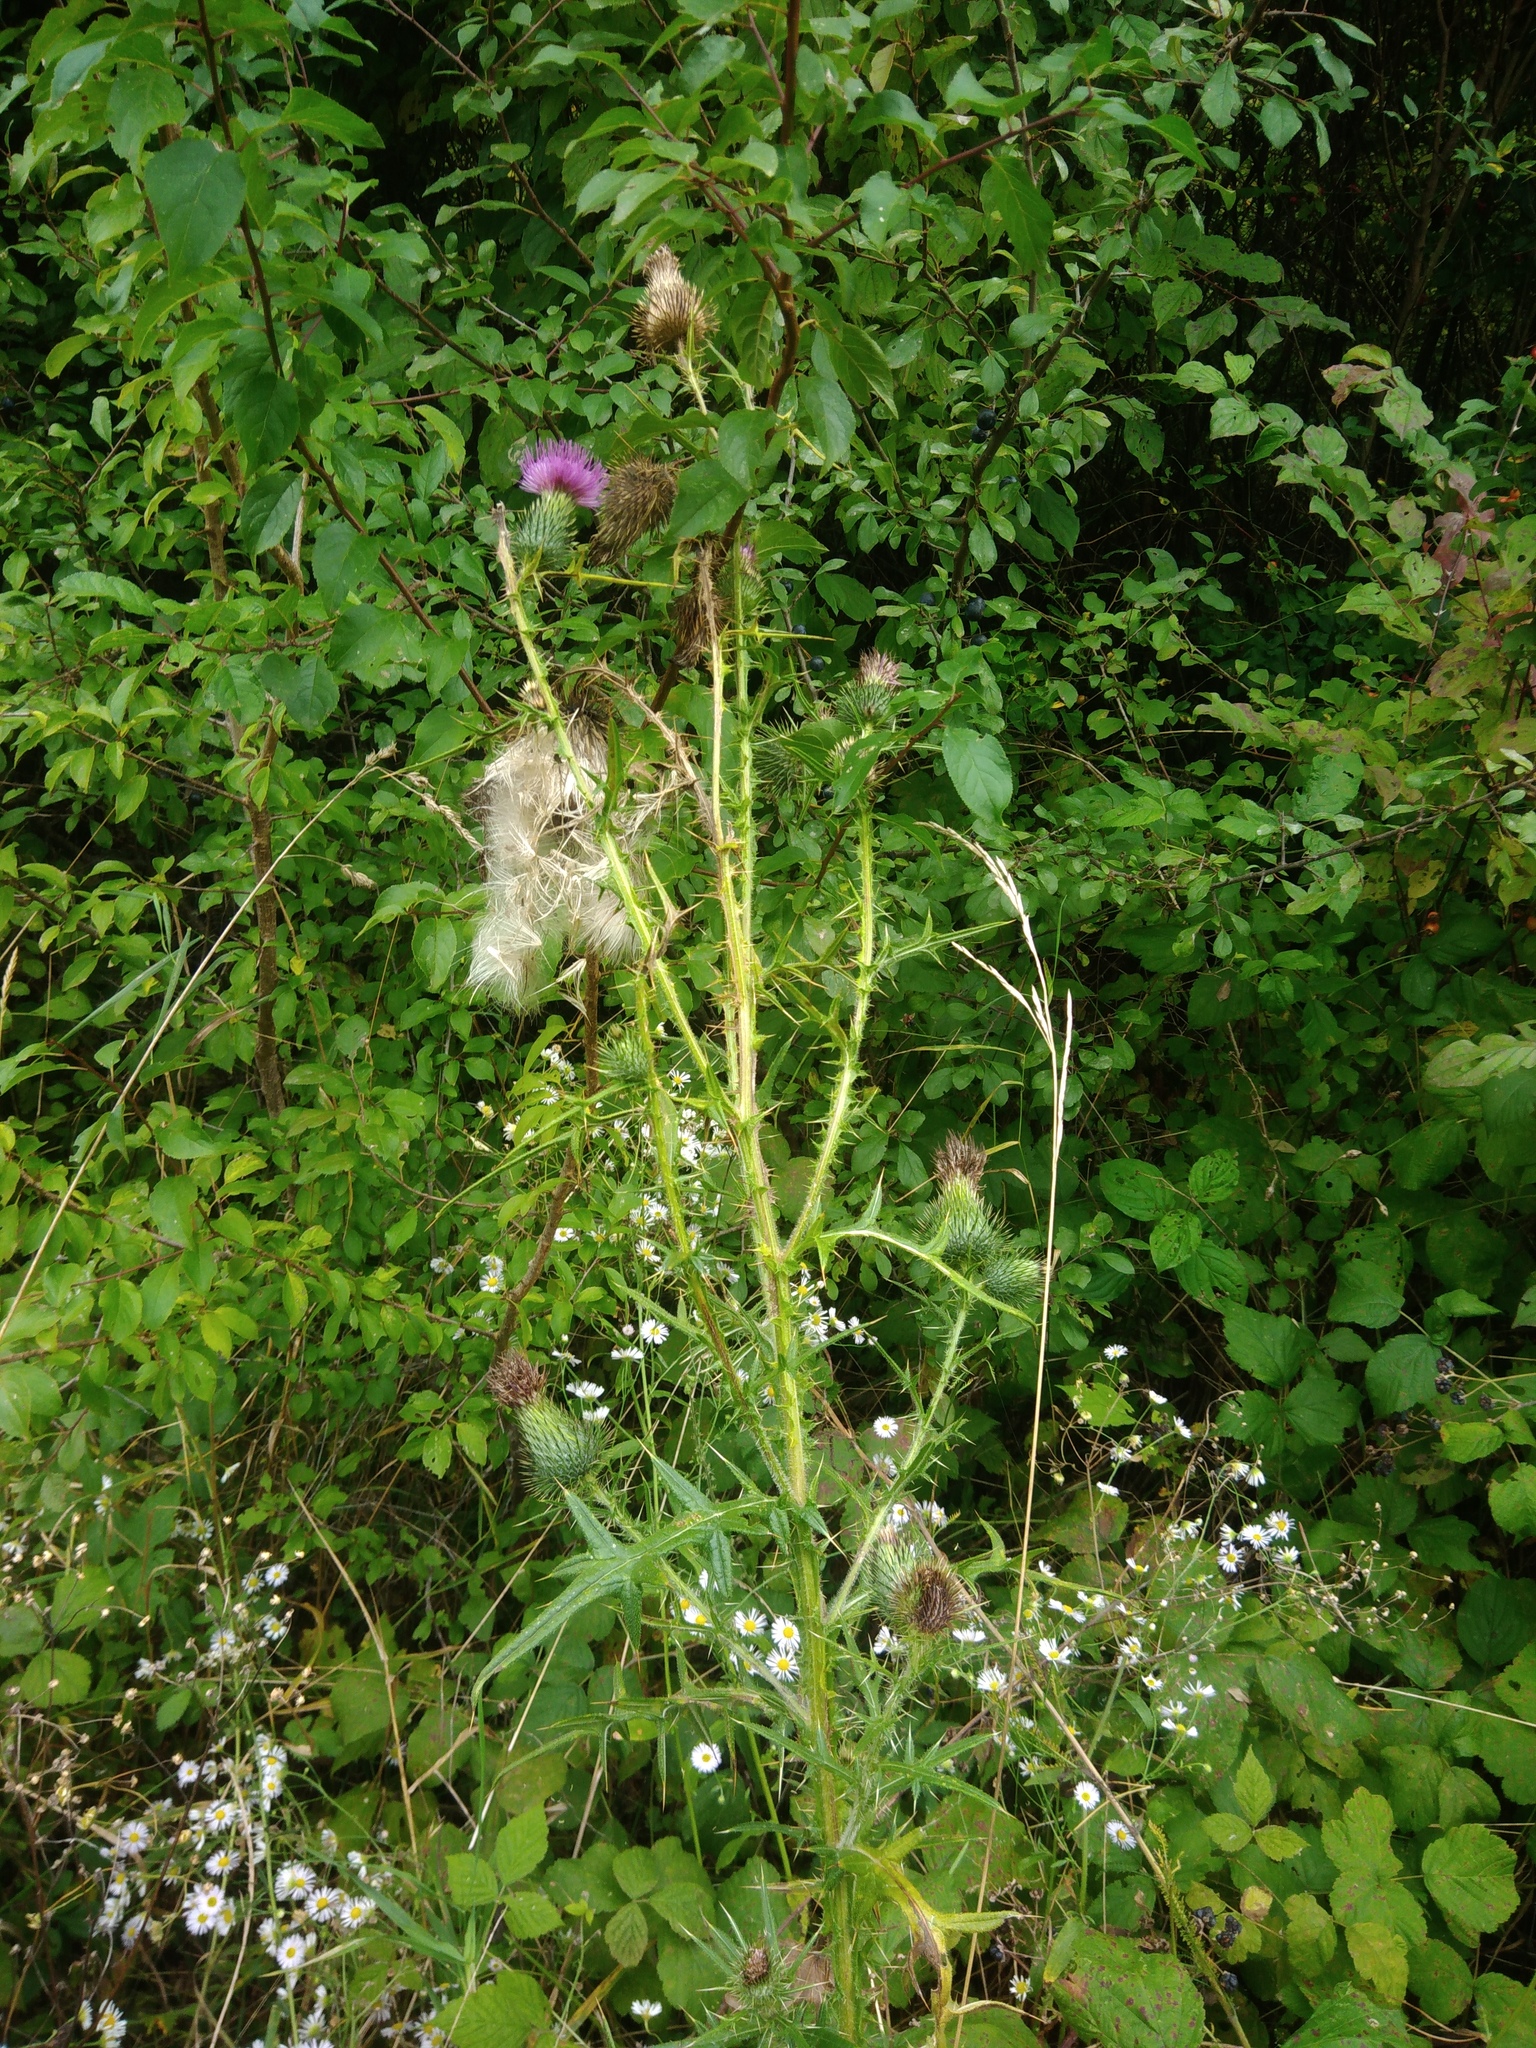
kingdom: Plantae
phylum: Tracheophyta
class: Magnoliopsida
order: Asterales
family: Asteraceae
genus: Cirsium
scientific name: Cirsium vulgare
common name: Bull thistle
